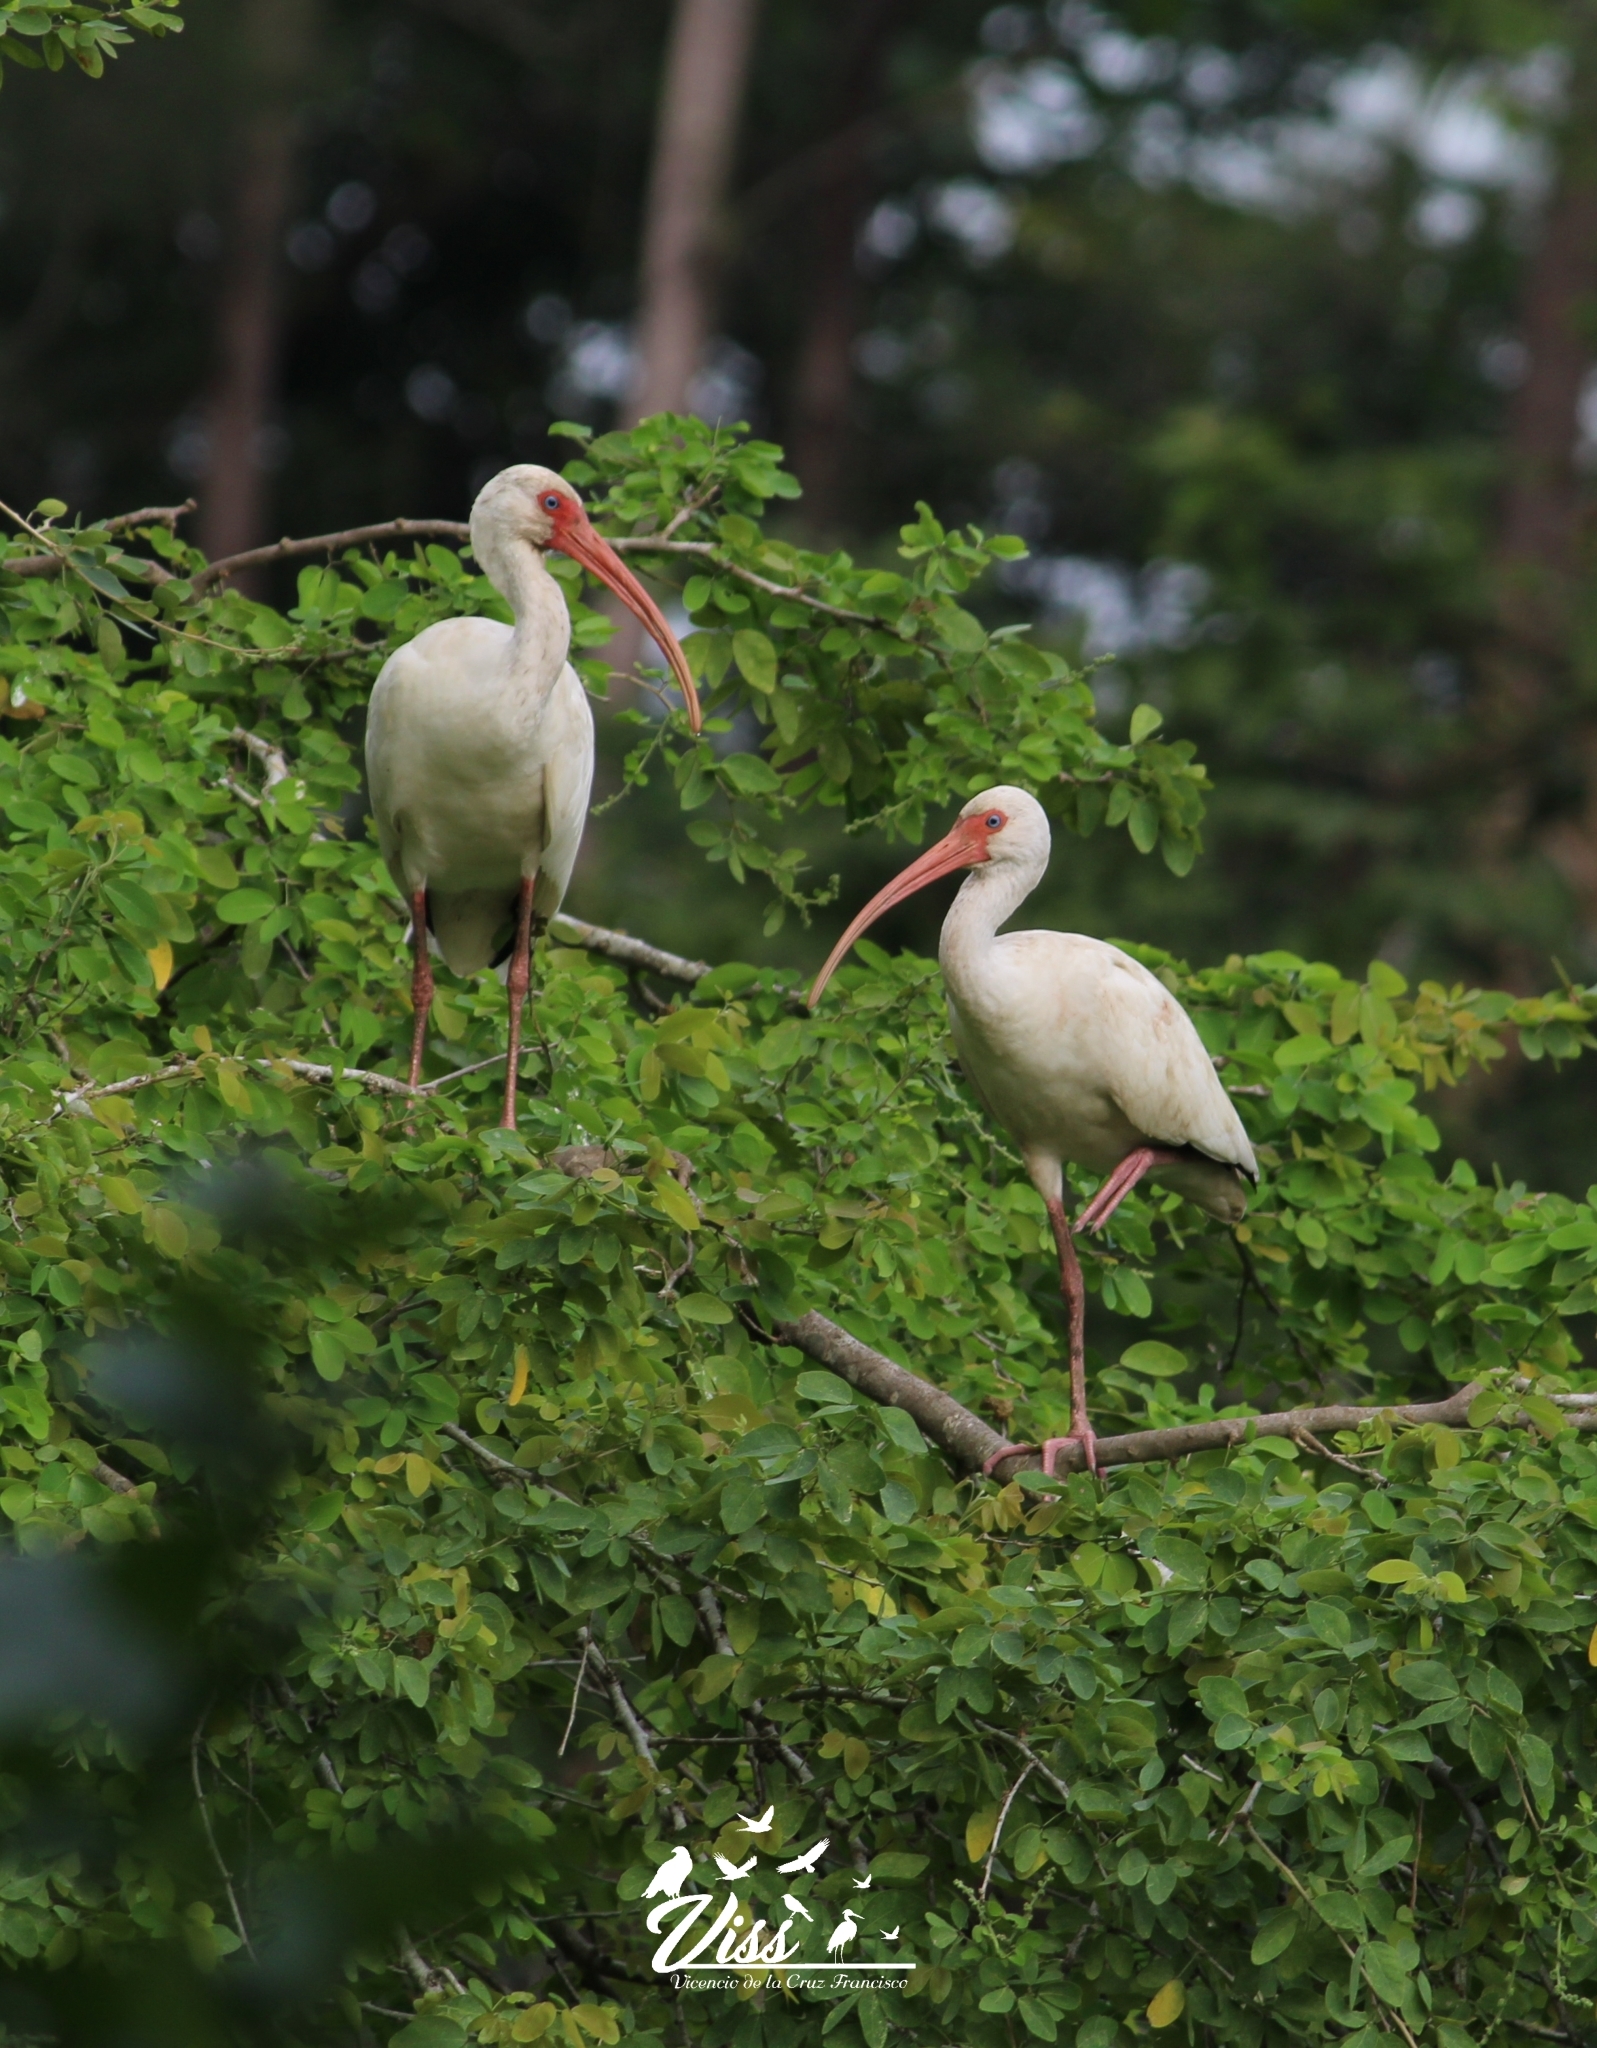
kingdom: Animalia
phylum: Chordata
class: Aves
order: Pelecaniformes
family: Threskiornithidae
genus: Eudocimus
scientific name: Eudocimus albus
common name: White ibis
